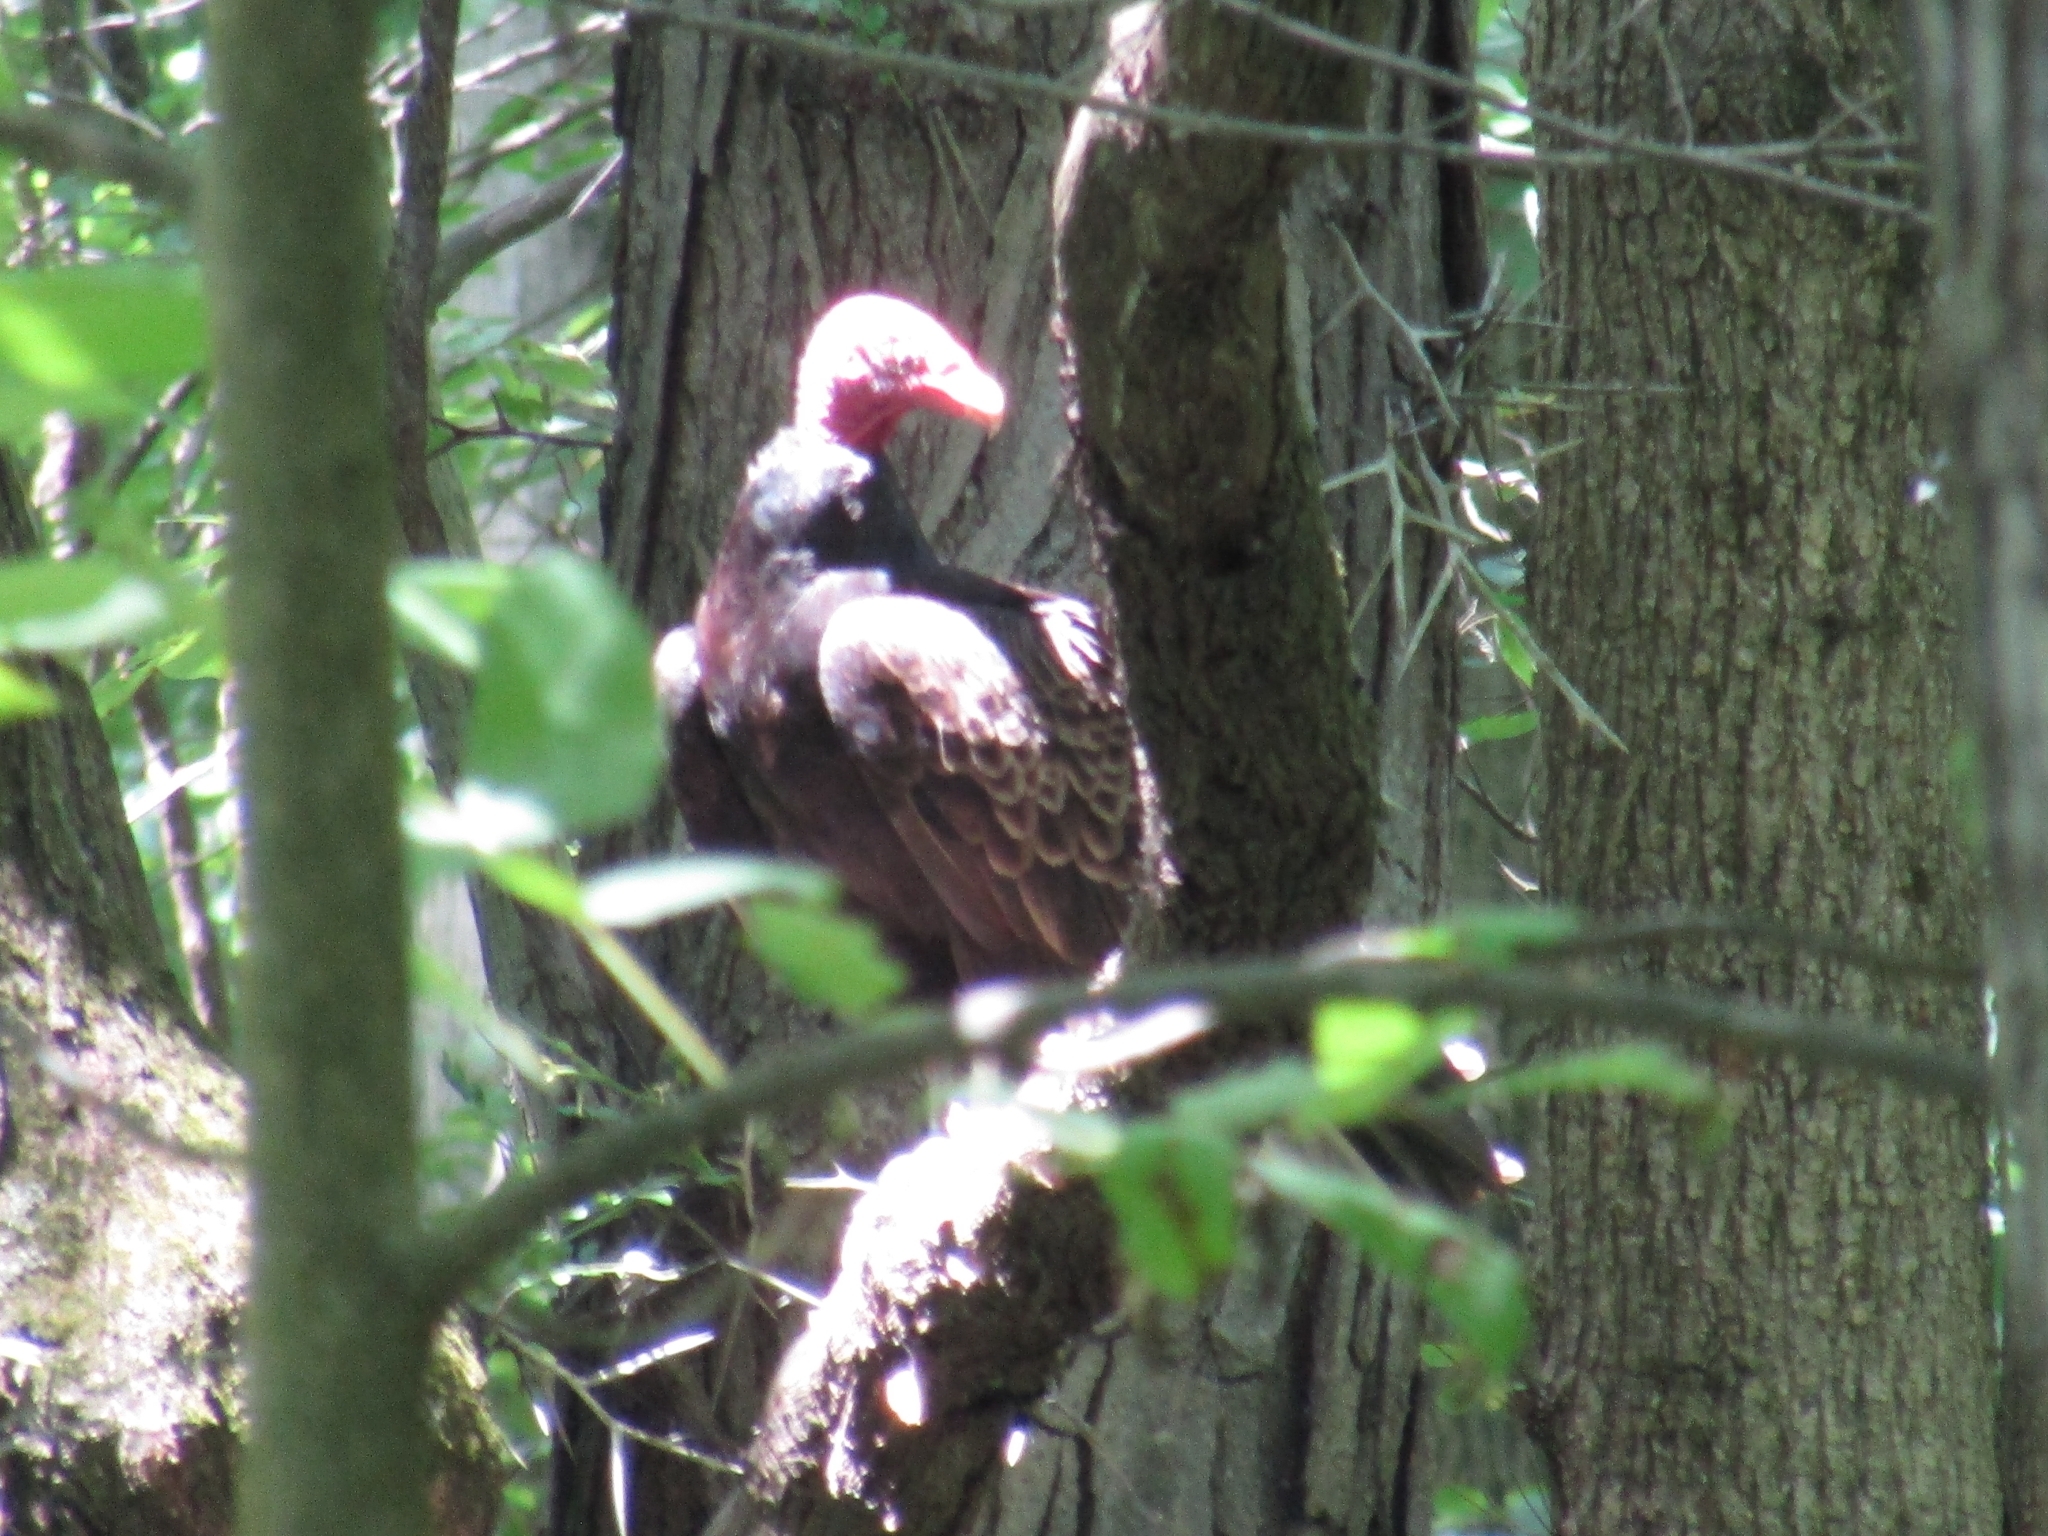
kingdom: Animalia
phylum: Chordata
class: Aves
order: Accipitriformes
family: Cathartidae
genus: Cathartes
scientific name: Cathartes aura
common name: Turkey vulture
